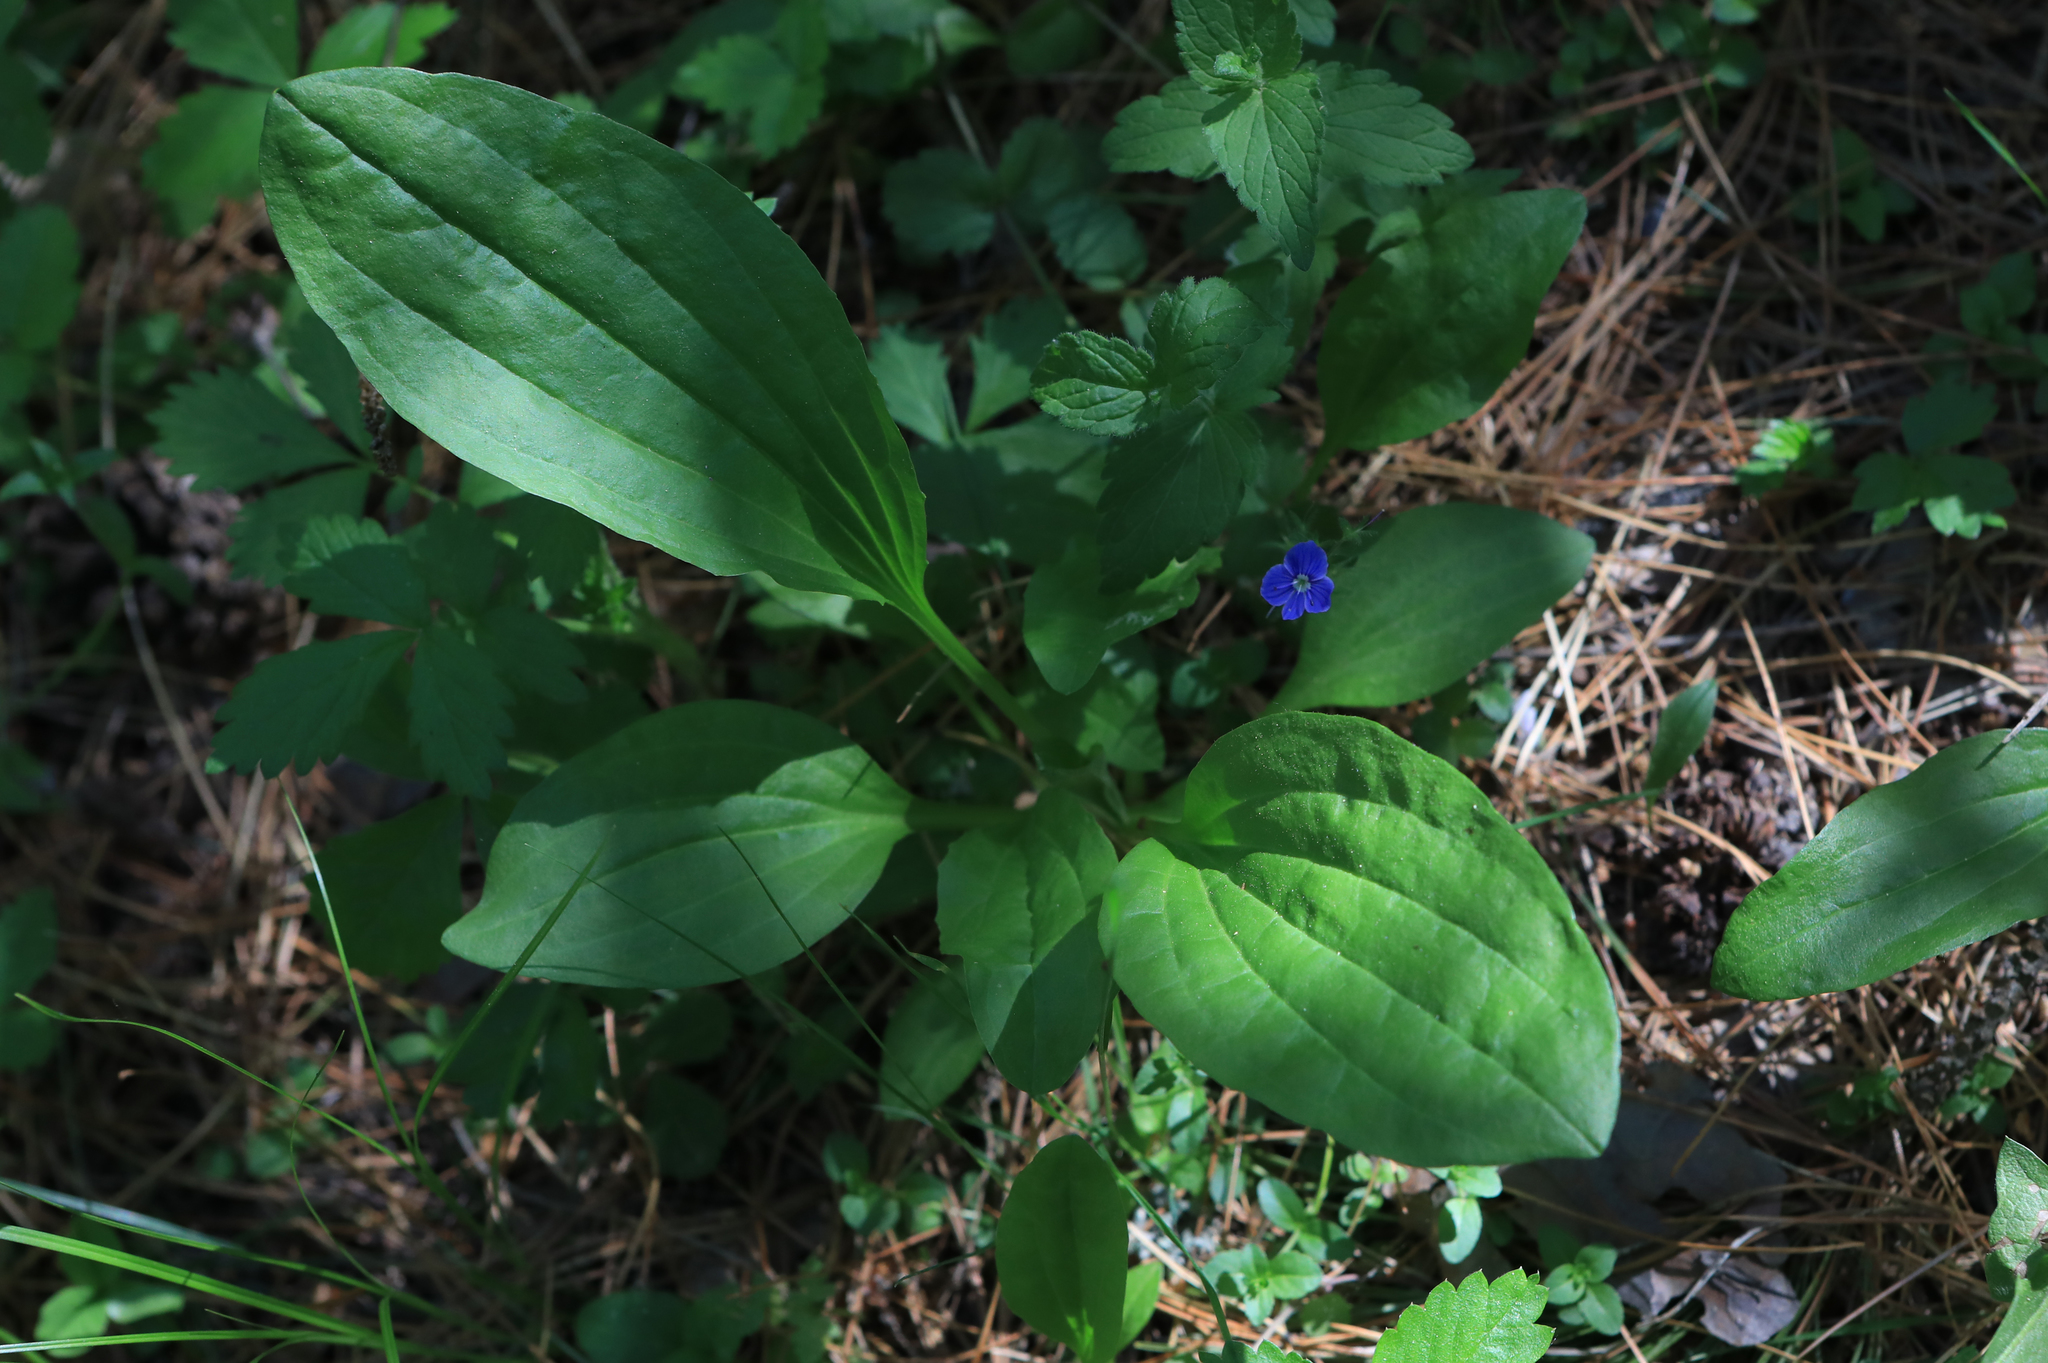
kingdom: Plantae
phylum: Tracheophyta
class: Magnoliopsida
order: Lamiales
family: Plantaginaceae
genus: Plantago
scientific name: Plantago major
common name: Common plantain
